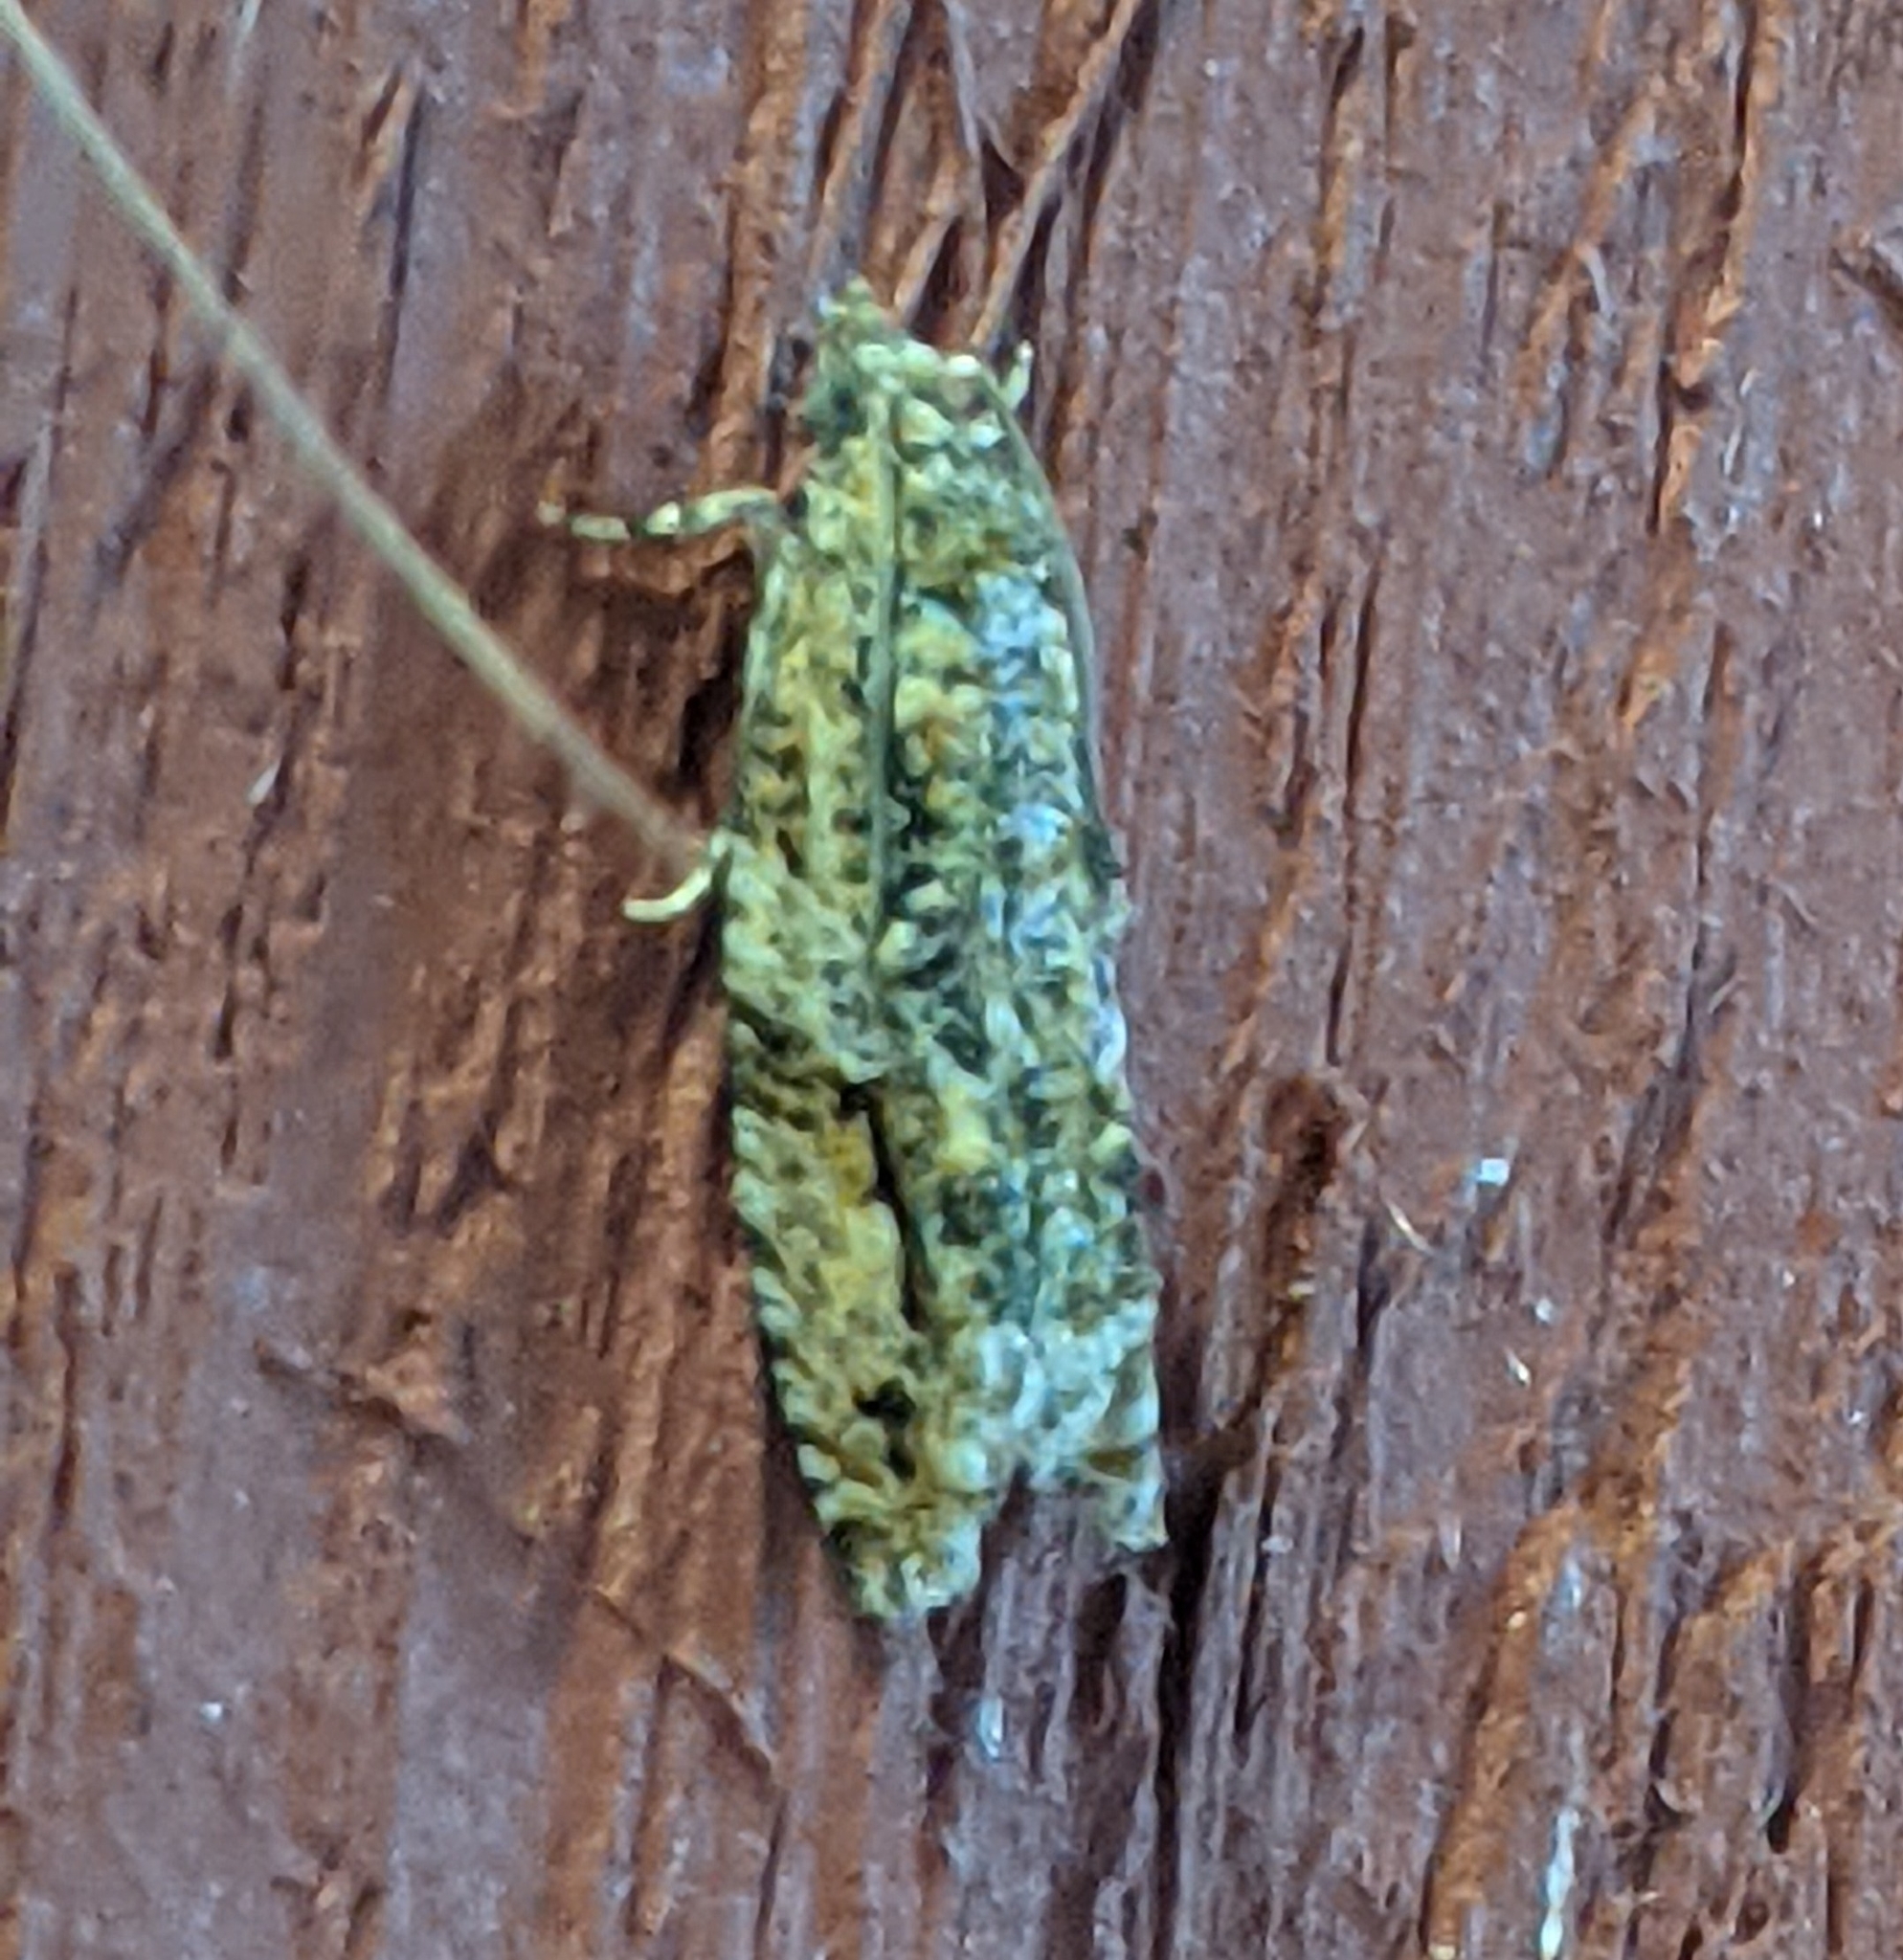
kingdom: Animalia
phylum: Arthropoda
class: Insecta
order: Lepidoptera
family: Tortricidae
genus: Proteoteras
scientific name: Proteoteras aesculana
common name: Maple twig borer moth
